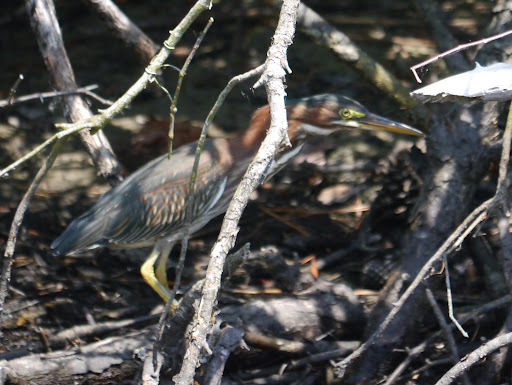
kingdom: Animalia
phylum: Chordata
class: Aves
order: Pelecaniformes
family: Ardeidae
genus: Butorides
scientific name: Butorides virescens
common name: Green heron
